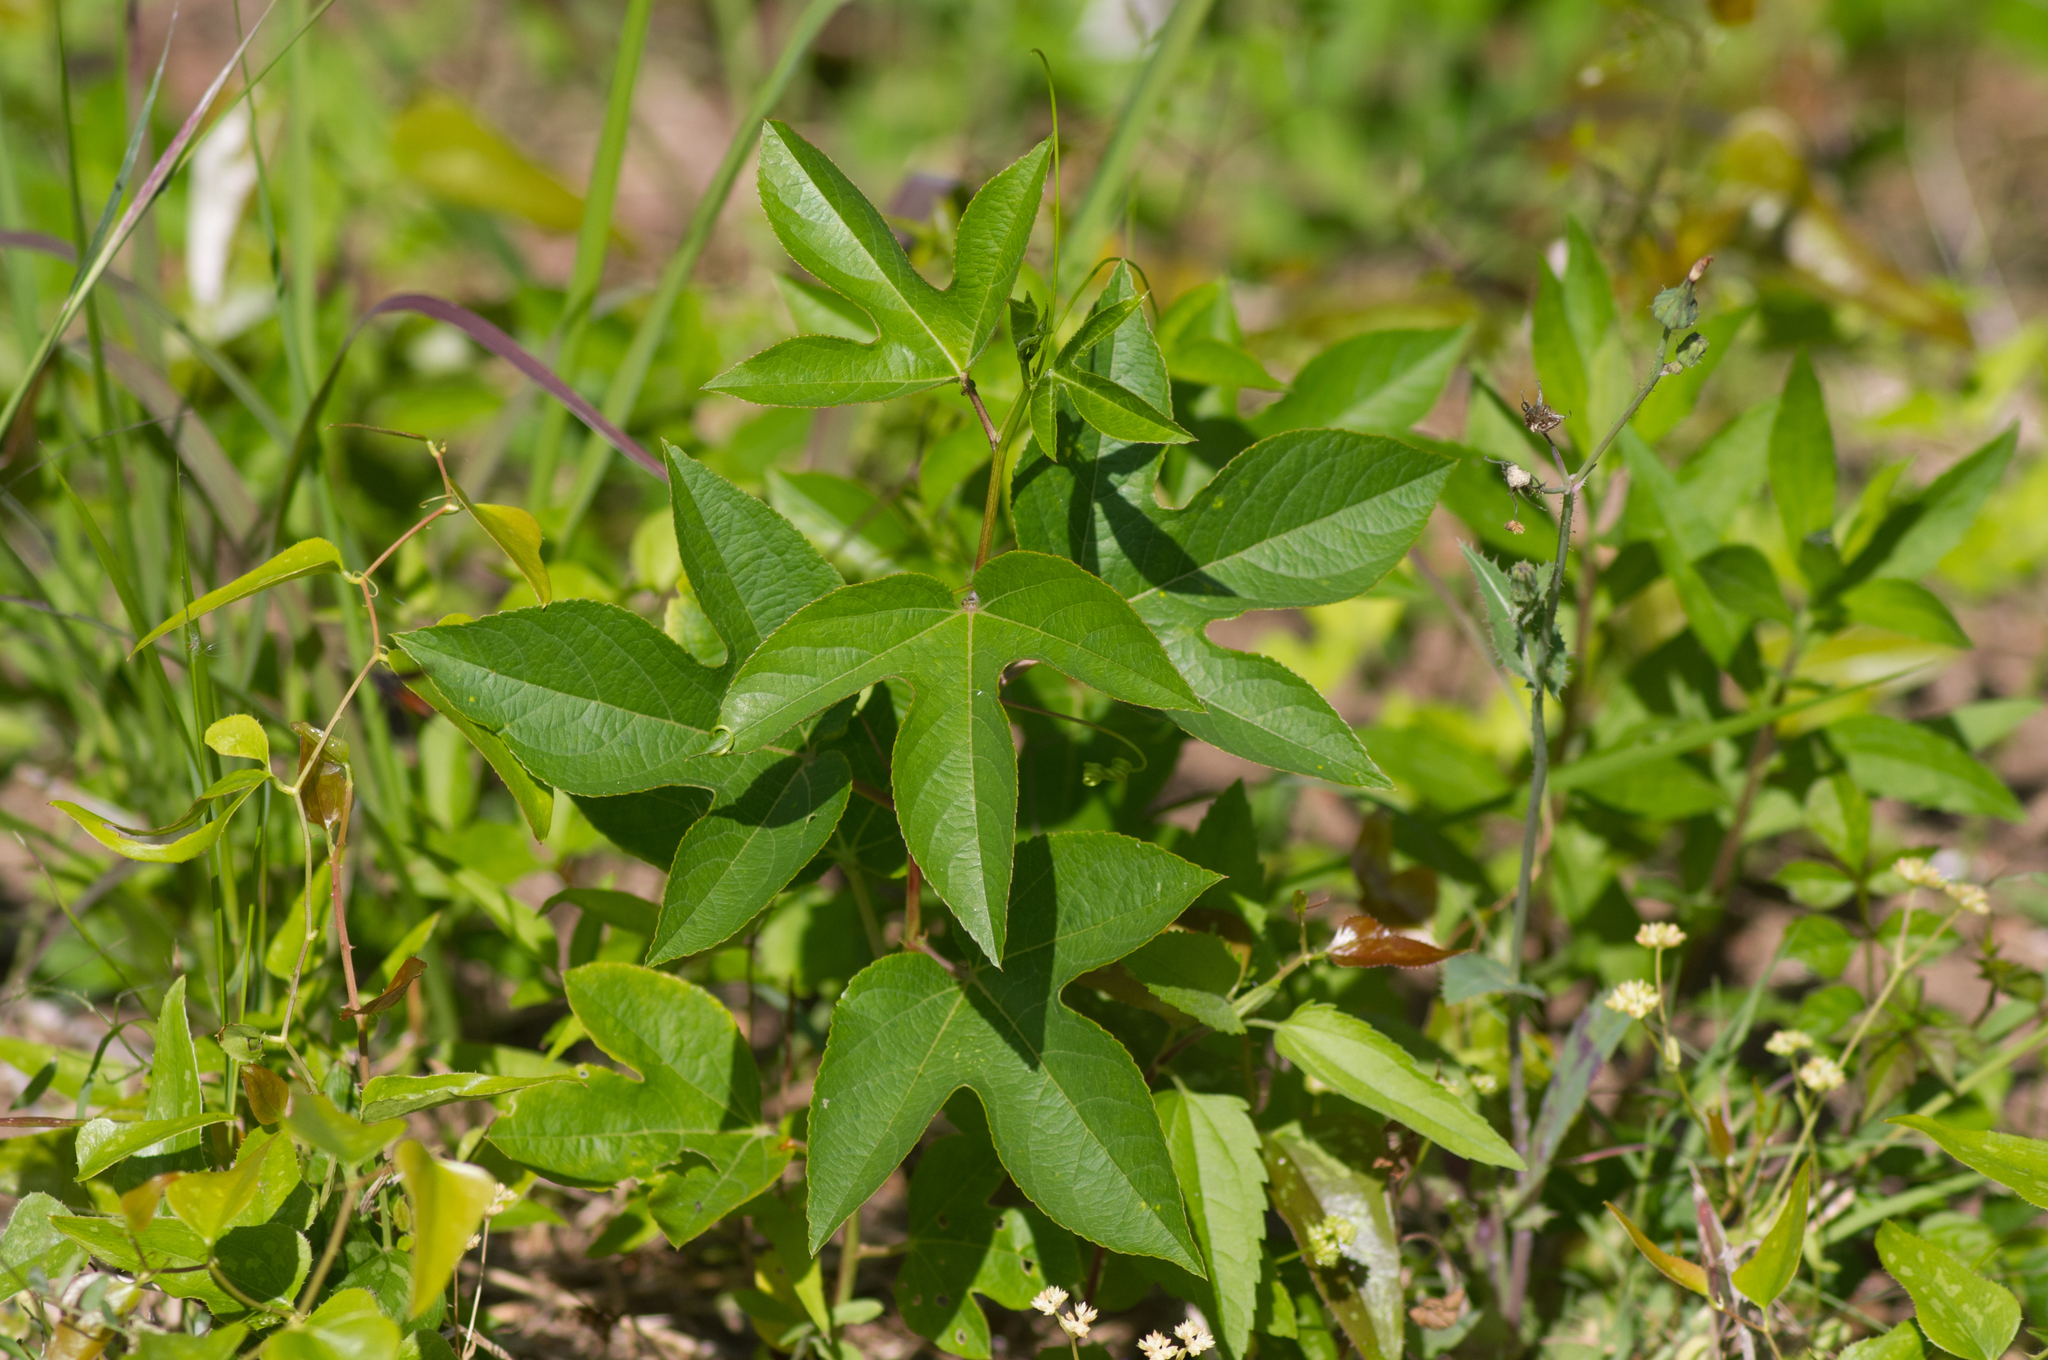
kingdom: Plantae
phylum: Tracheophyta
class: Magnoliopsida
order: Malpighiales
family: Passifloraceae
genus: Passiflora
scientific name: Passiflora incarnata
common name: Apricot-vine
